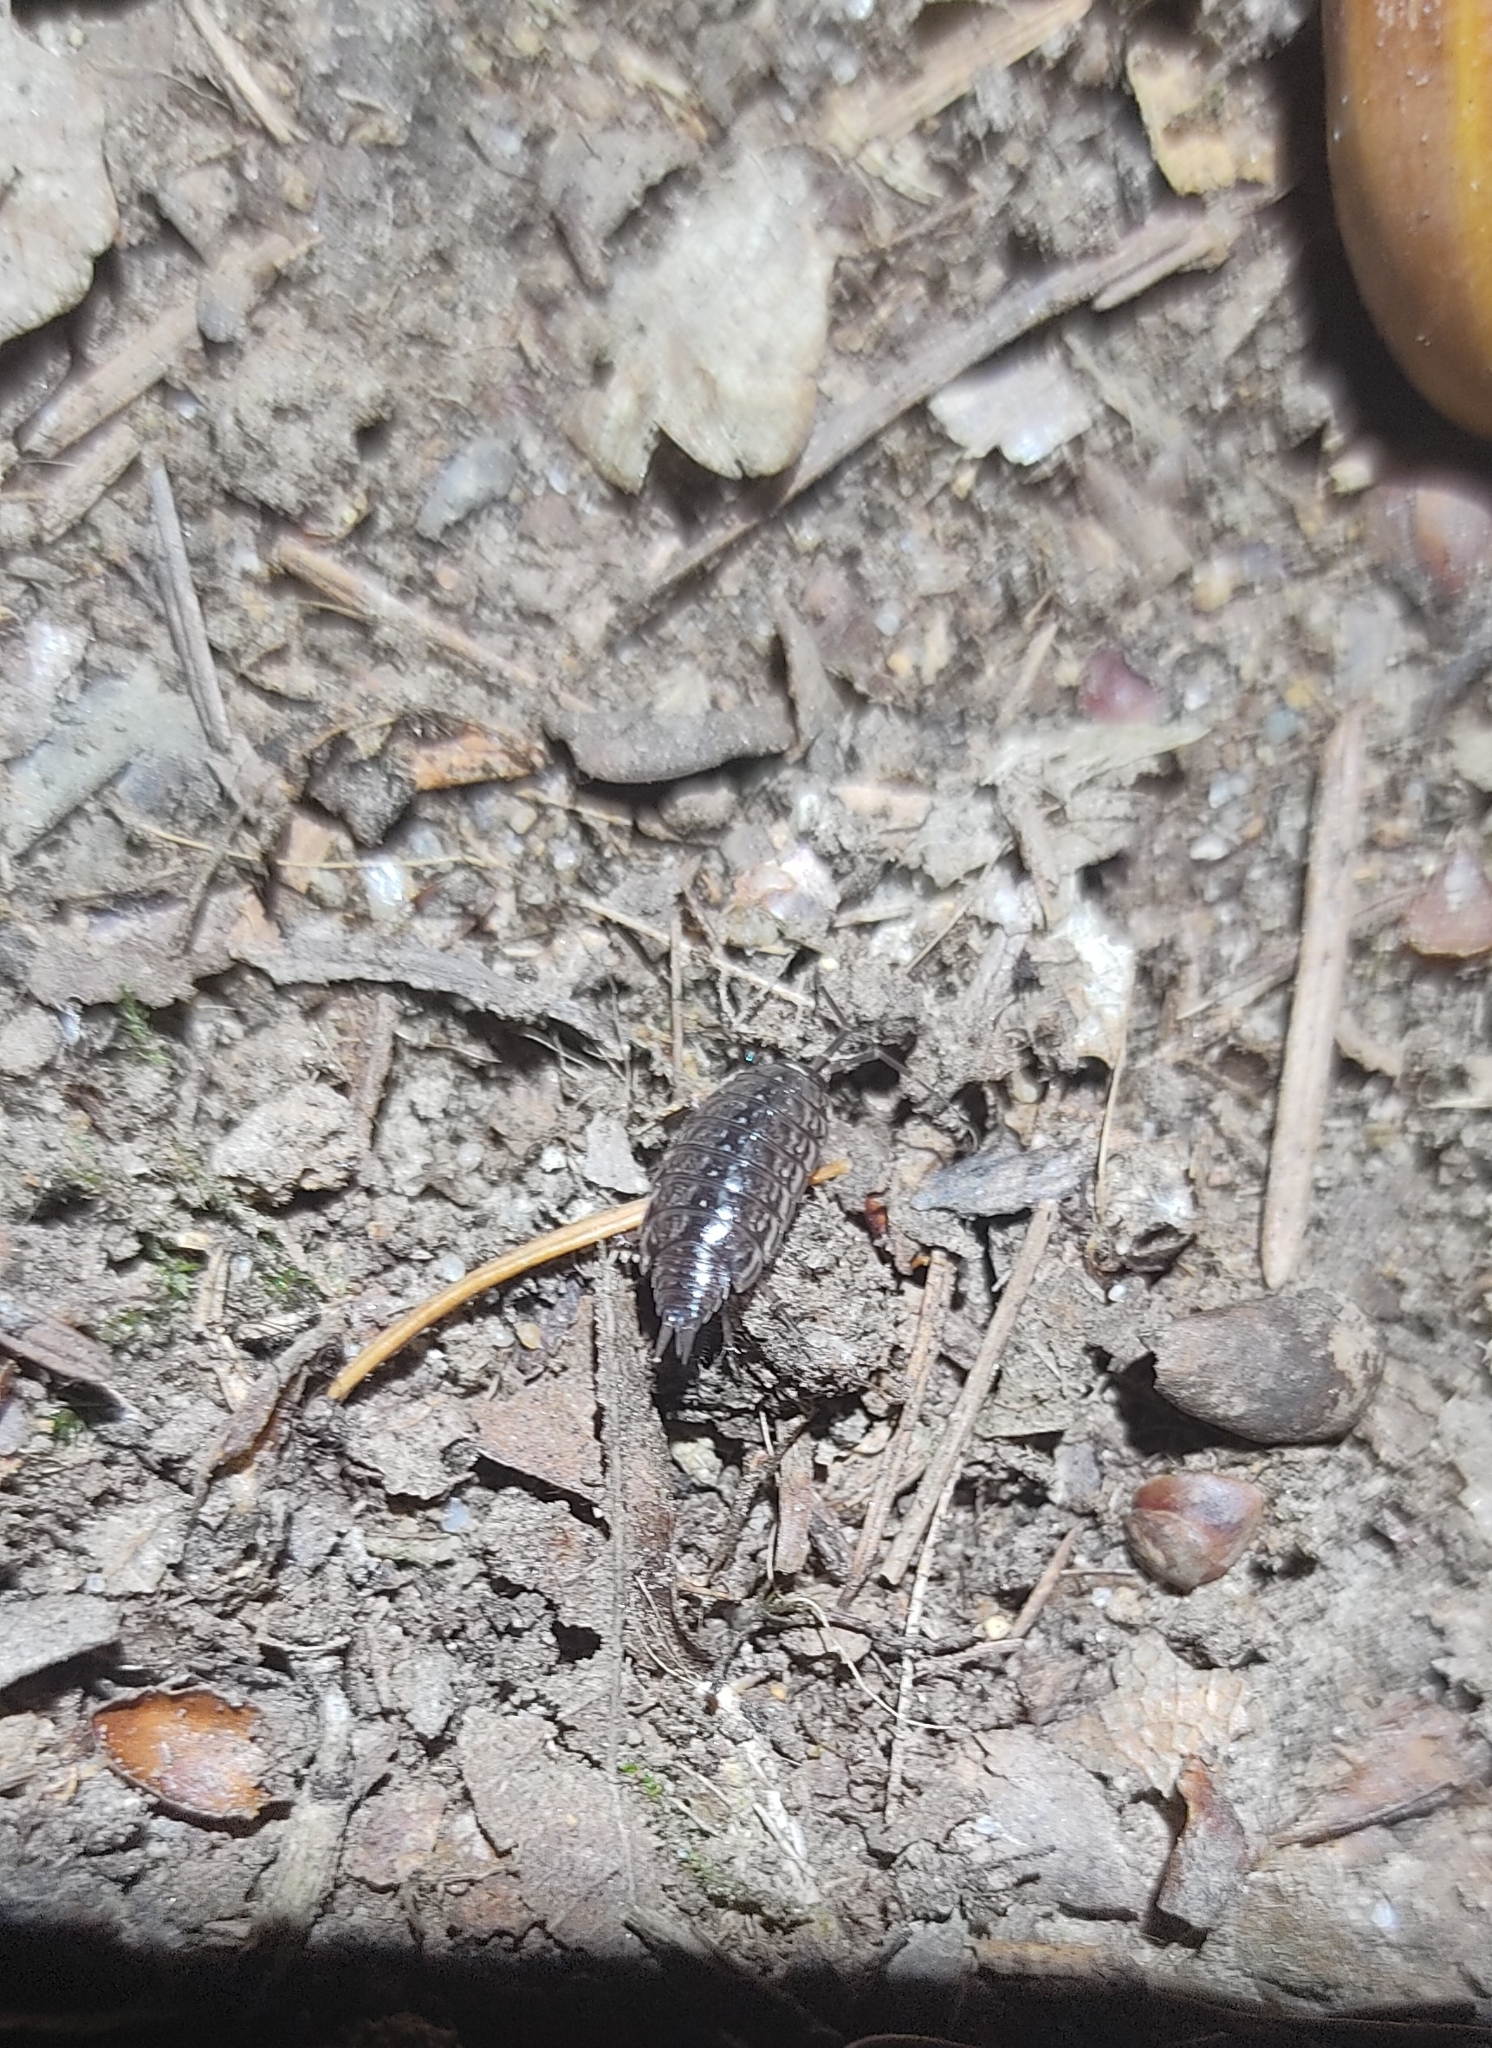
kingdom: Animalia
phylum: Arthropoda
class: Malacostraca
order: Isopoda
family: Philosciidae
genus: Philoscia
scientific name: Philoscia muscorum
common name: Common striped woodlouse
